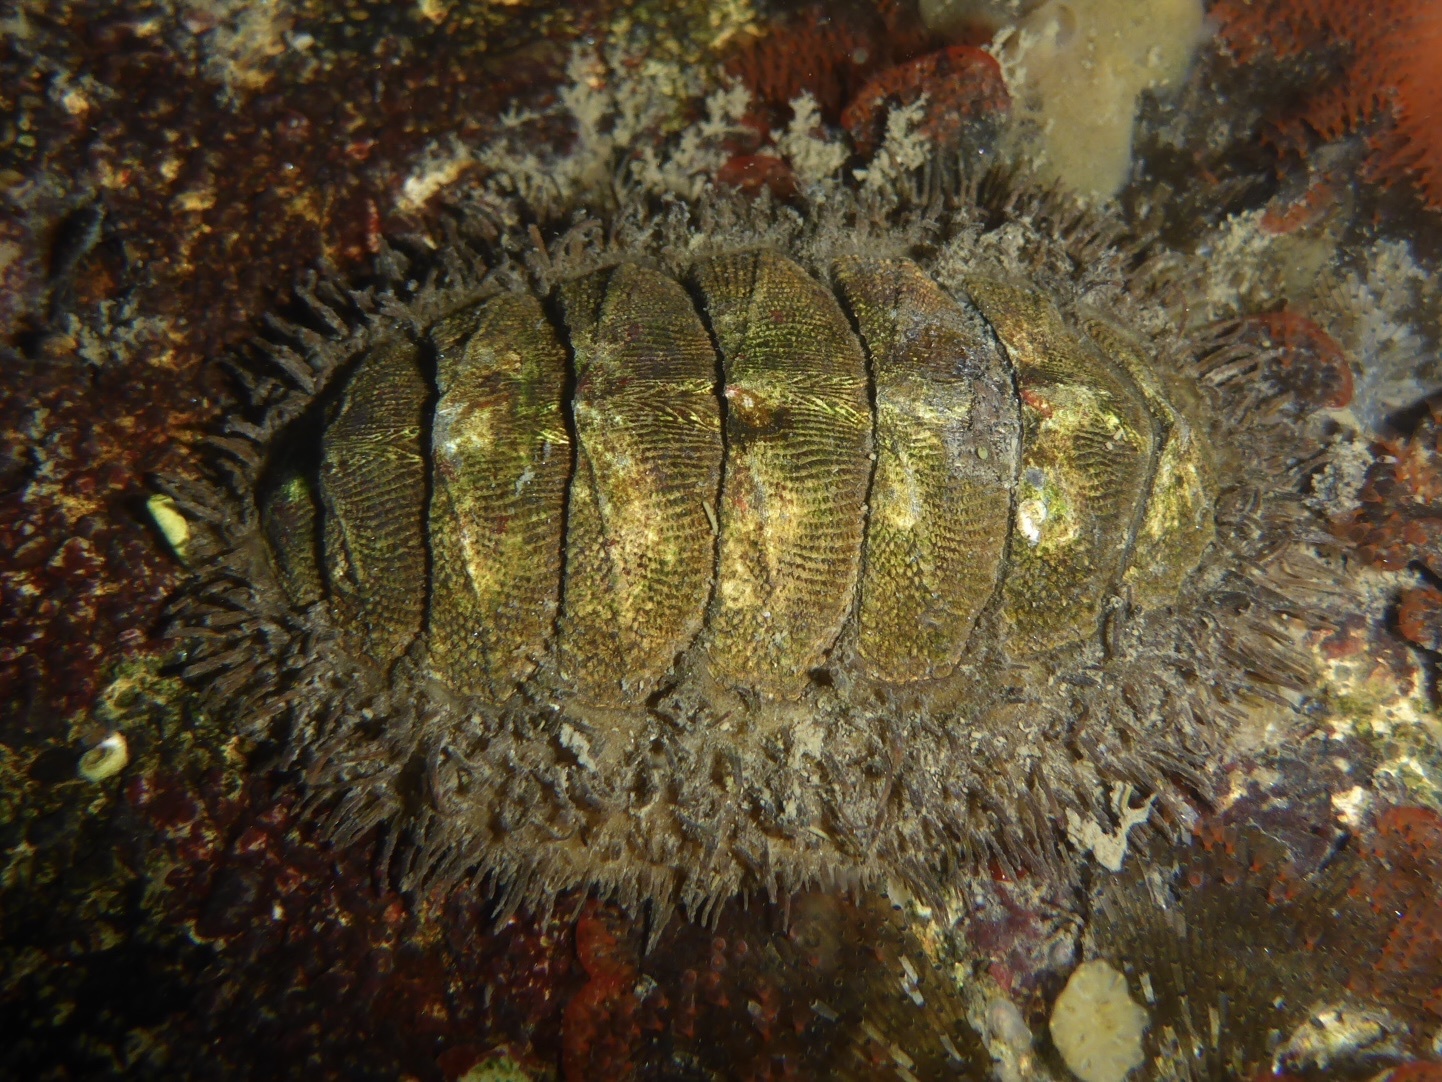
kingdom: Animalia
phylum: Mollusca
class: Polyplacophora
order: Chitonida
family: Mopaliidae
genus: Mopalia
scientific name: Mopalia muscosa
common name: Mossy chiton
